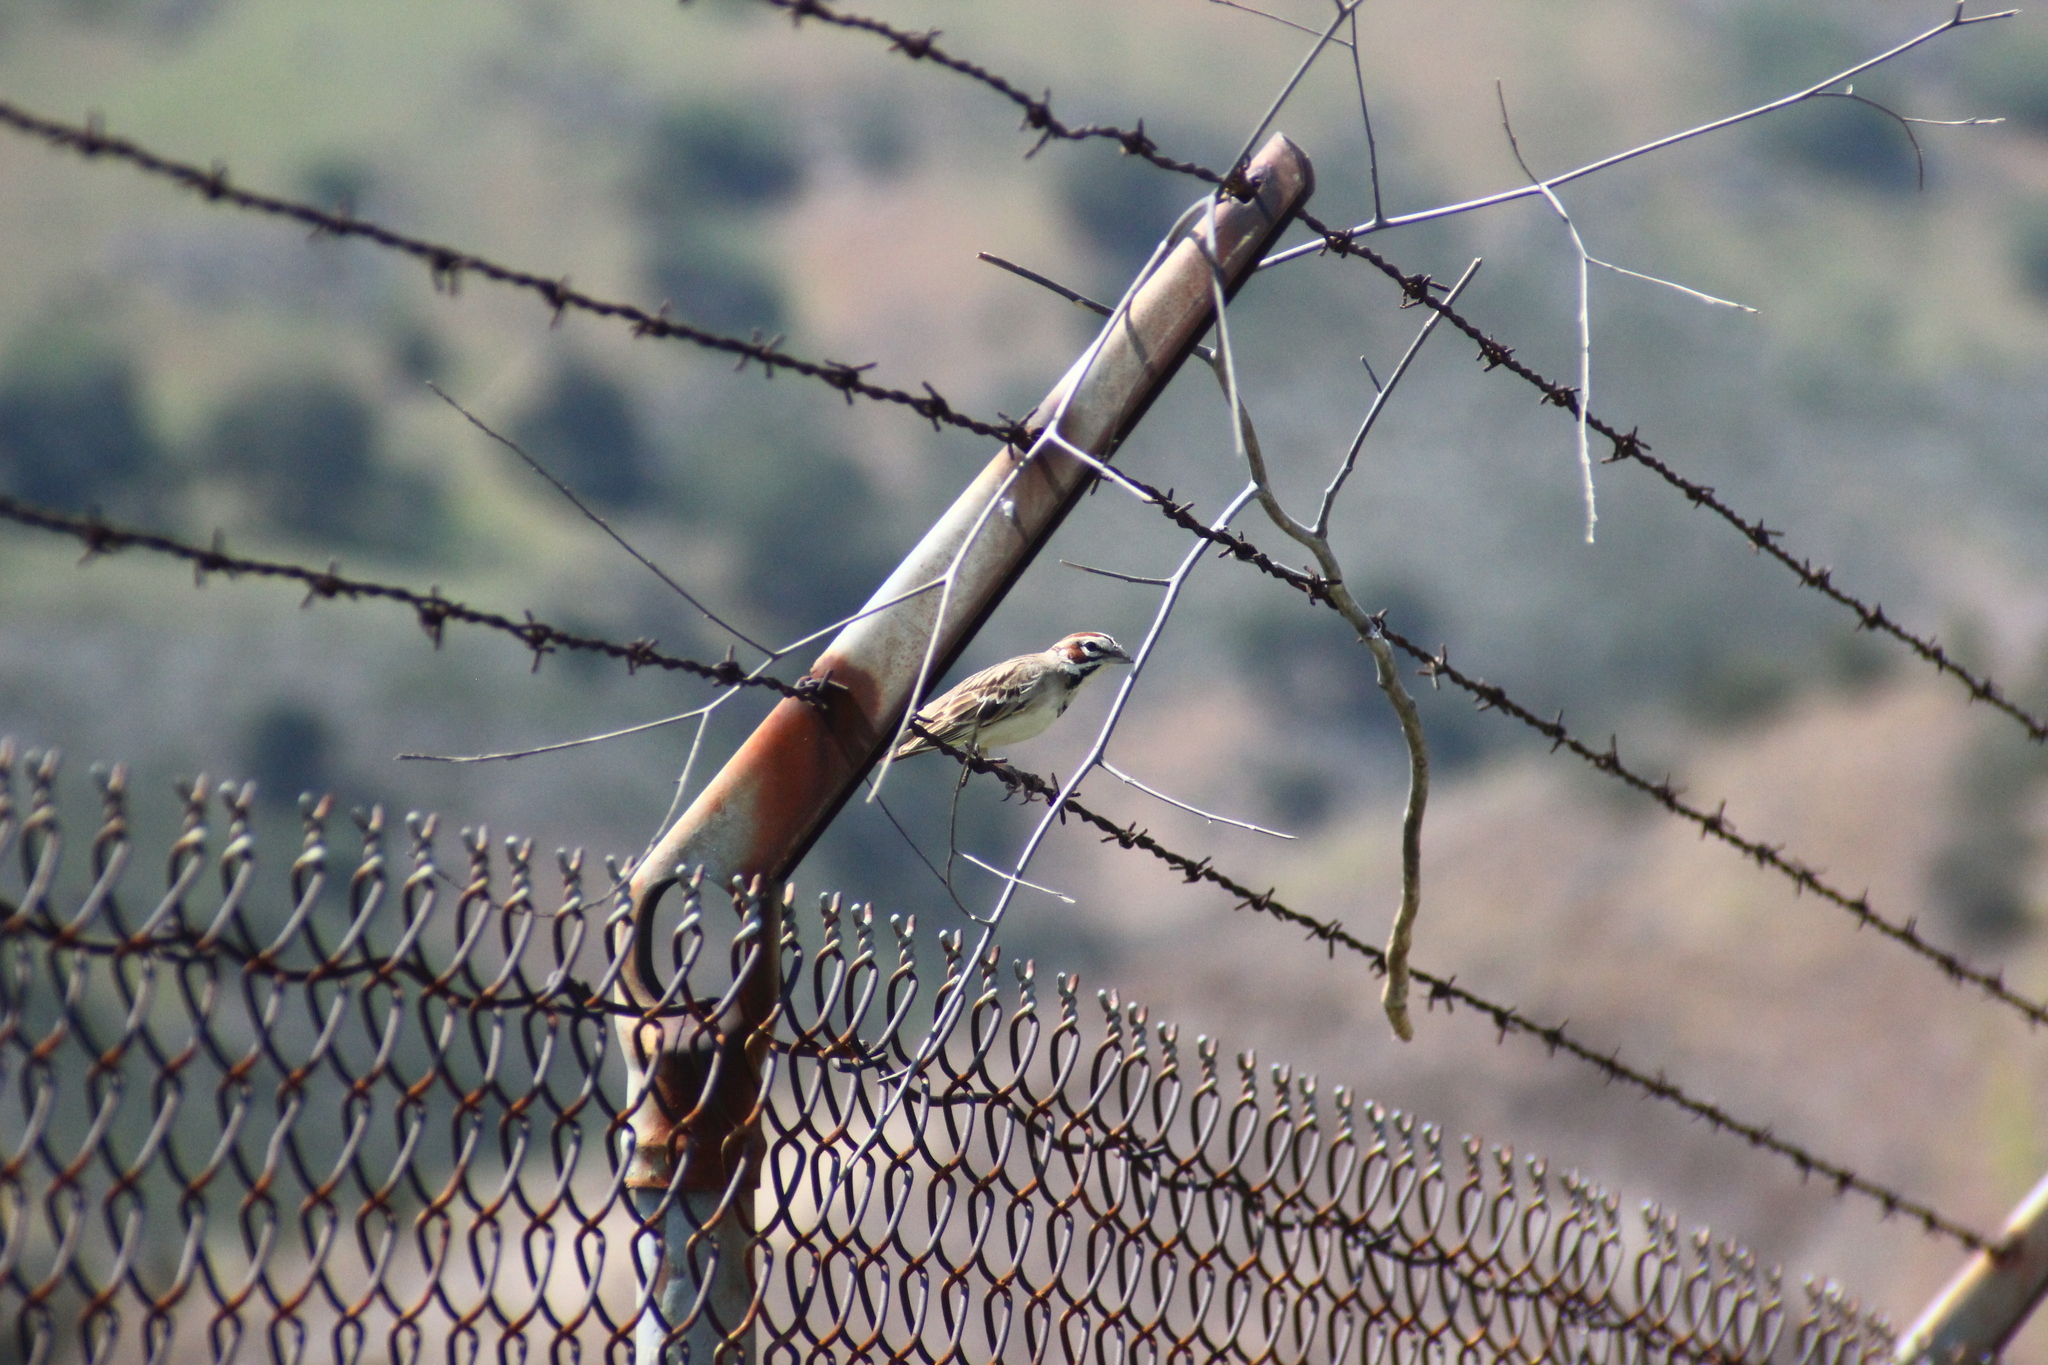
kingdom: Animalia
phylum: Chordata
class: Aves
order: Passeriformes
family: Passerellidae
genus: Chondestes
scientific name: Chondestes grammacus
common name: Lark sparrow
